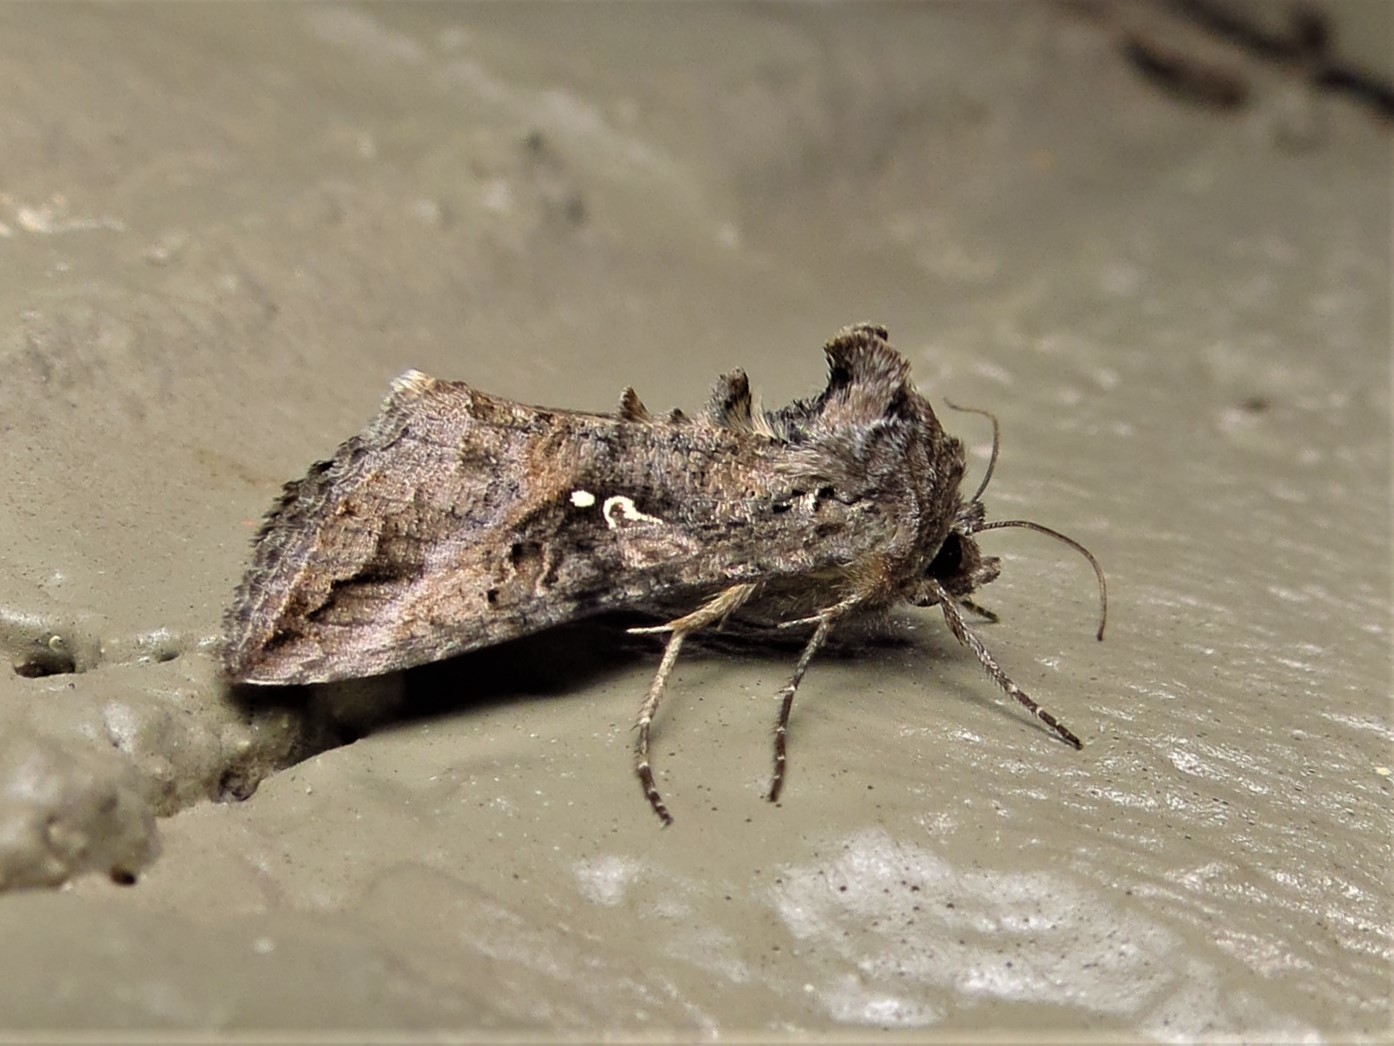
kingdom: Animalia
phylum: Arthropoda
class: Insecta
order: Lepidoptera
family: Noctuidae
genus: Rachiplusia
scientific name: Rachiplusia ou
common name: Gray looper moth
